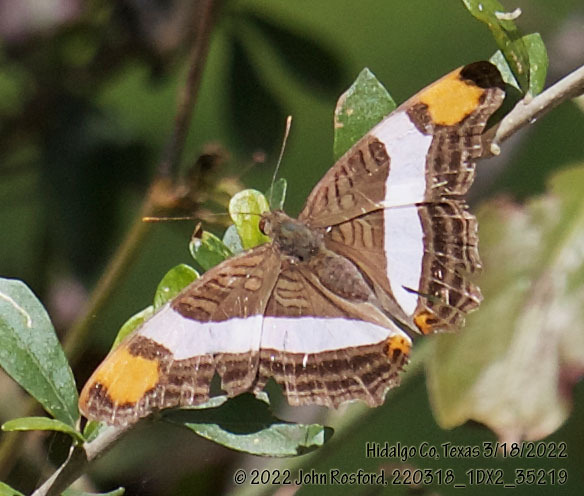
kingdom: Animalia
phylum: Arthropoda
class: Insecta
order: Lepidoptera
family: Nymphalidae
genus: Limenitis
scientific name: Limenitis fessonia
